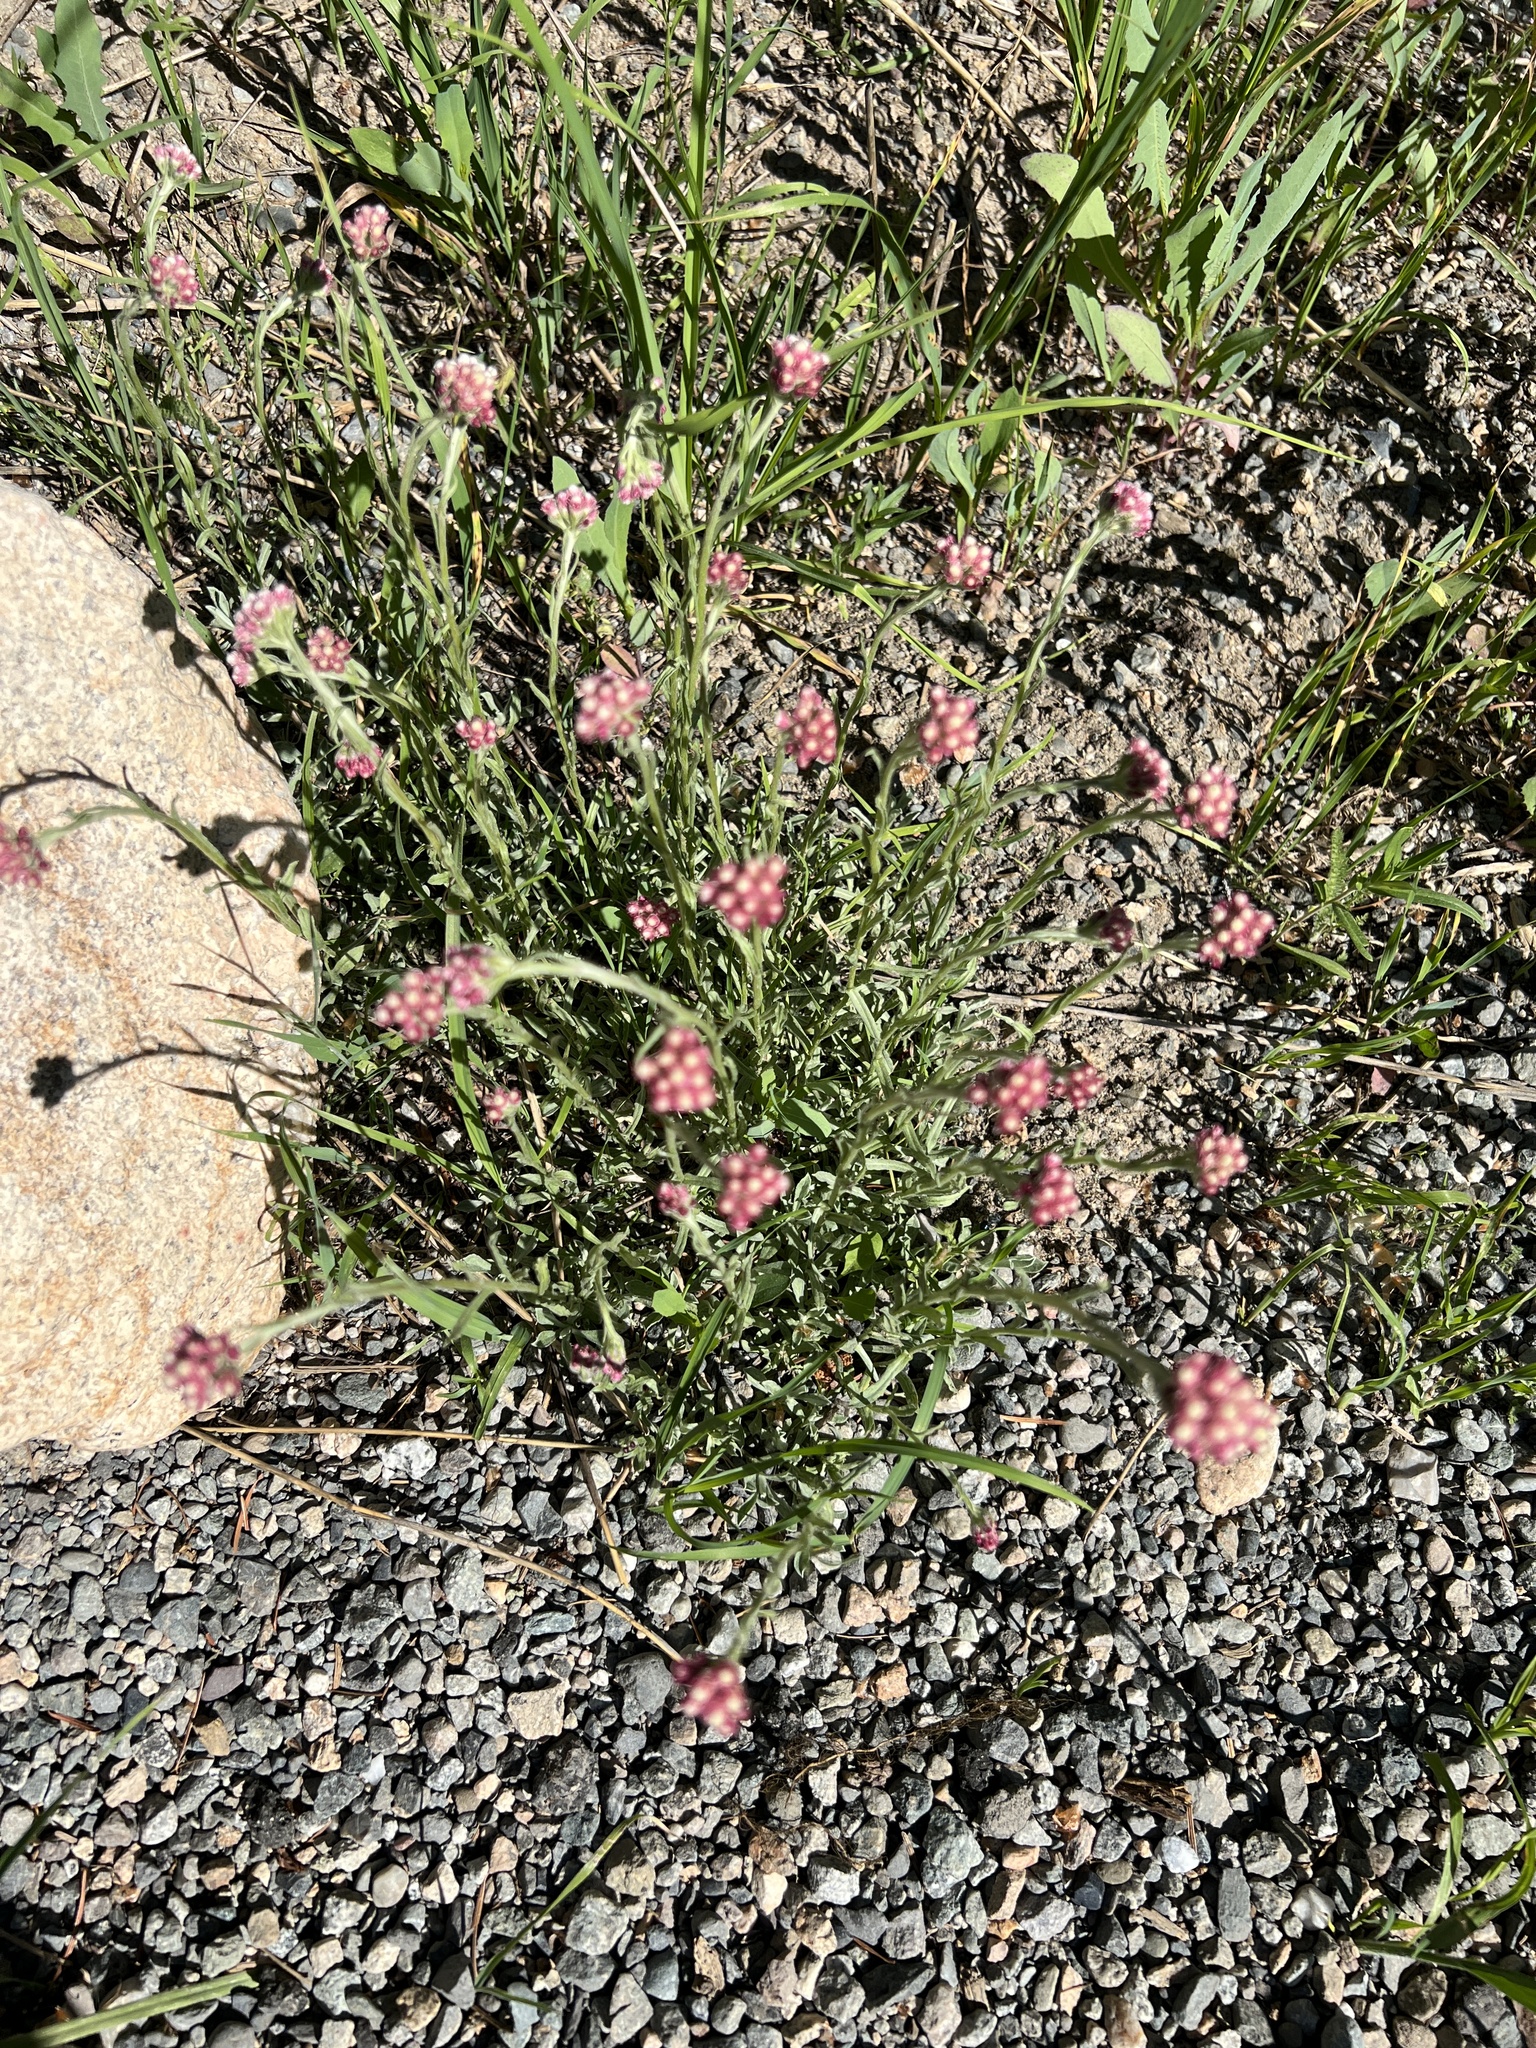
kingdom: Plantae
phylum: Tracheophyta
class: Magnoliopsida
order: Asterales
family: Asteraceae
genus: Antennaria
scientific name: Antennaria rosea
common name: Rosy pussytoes
